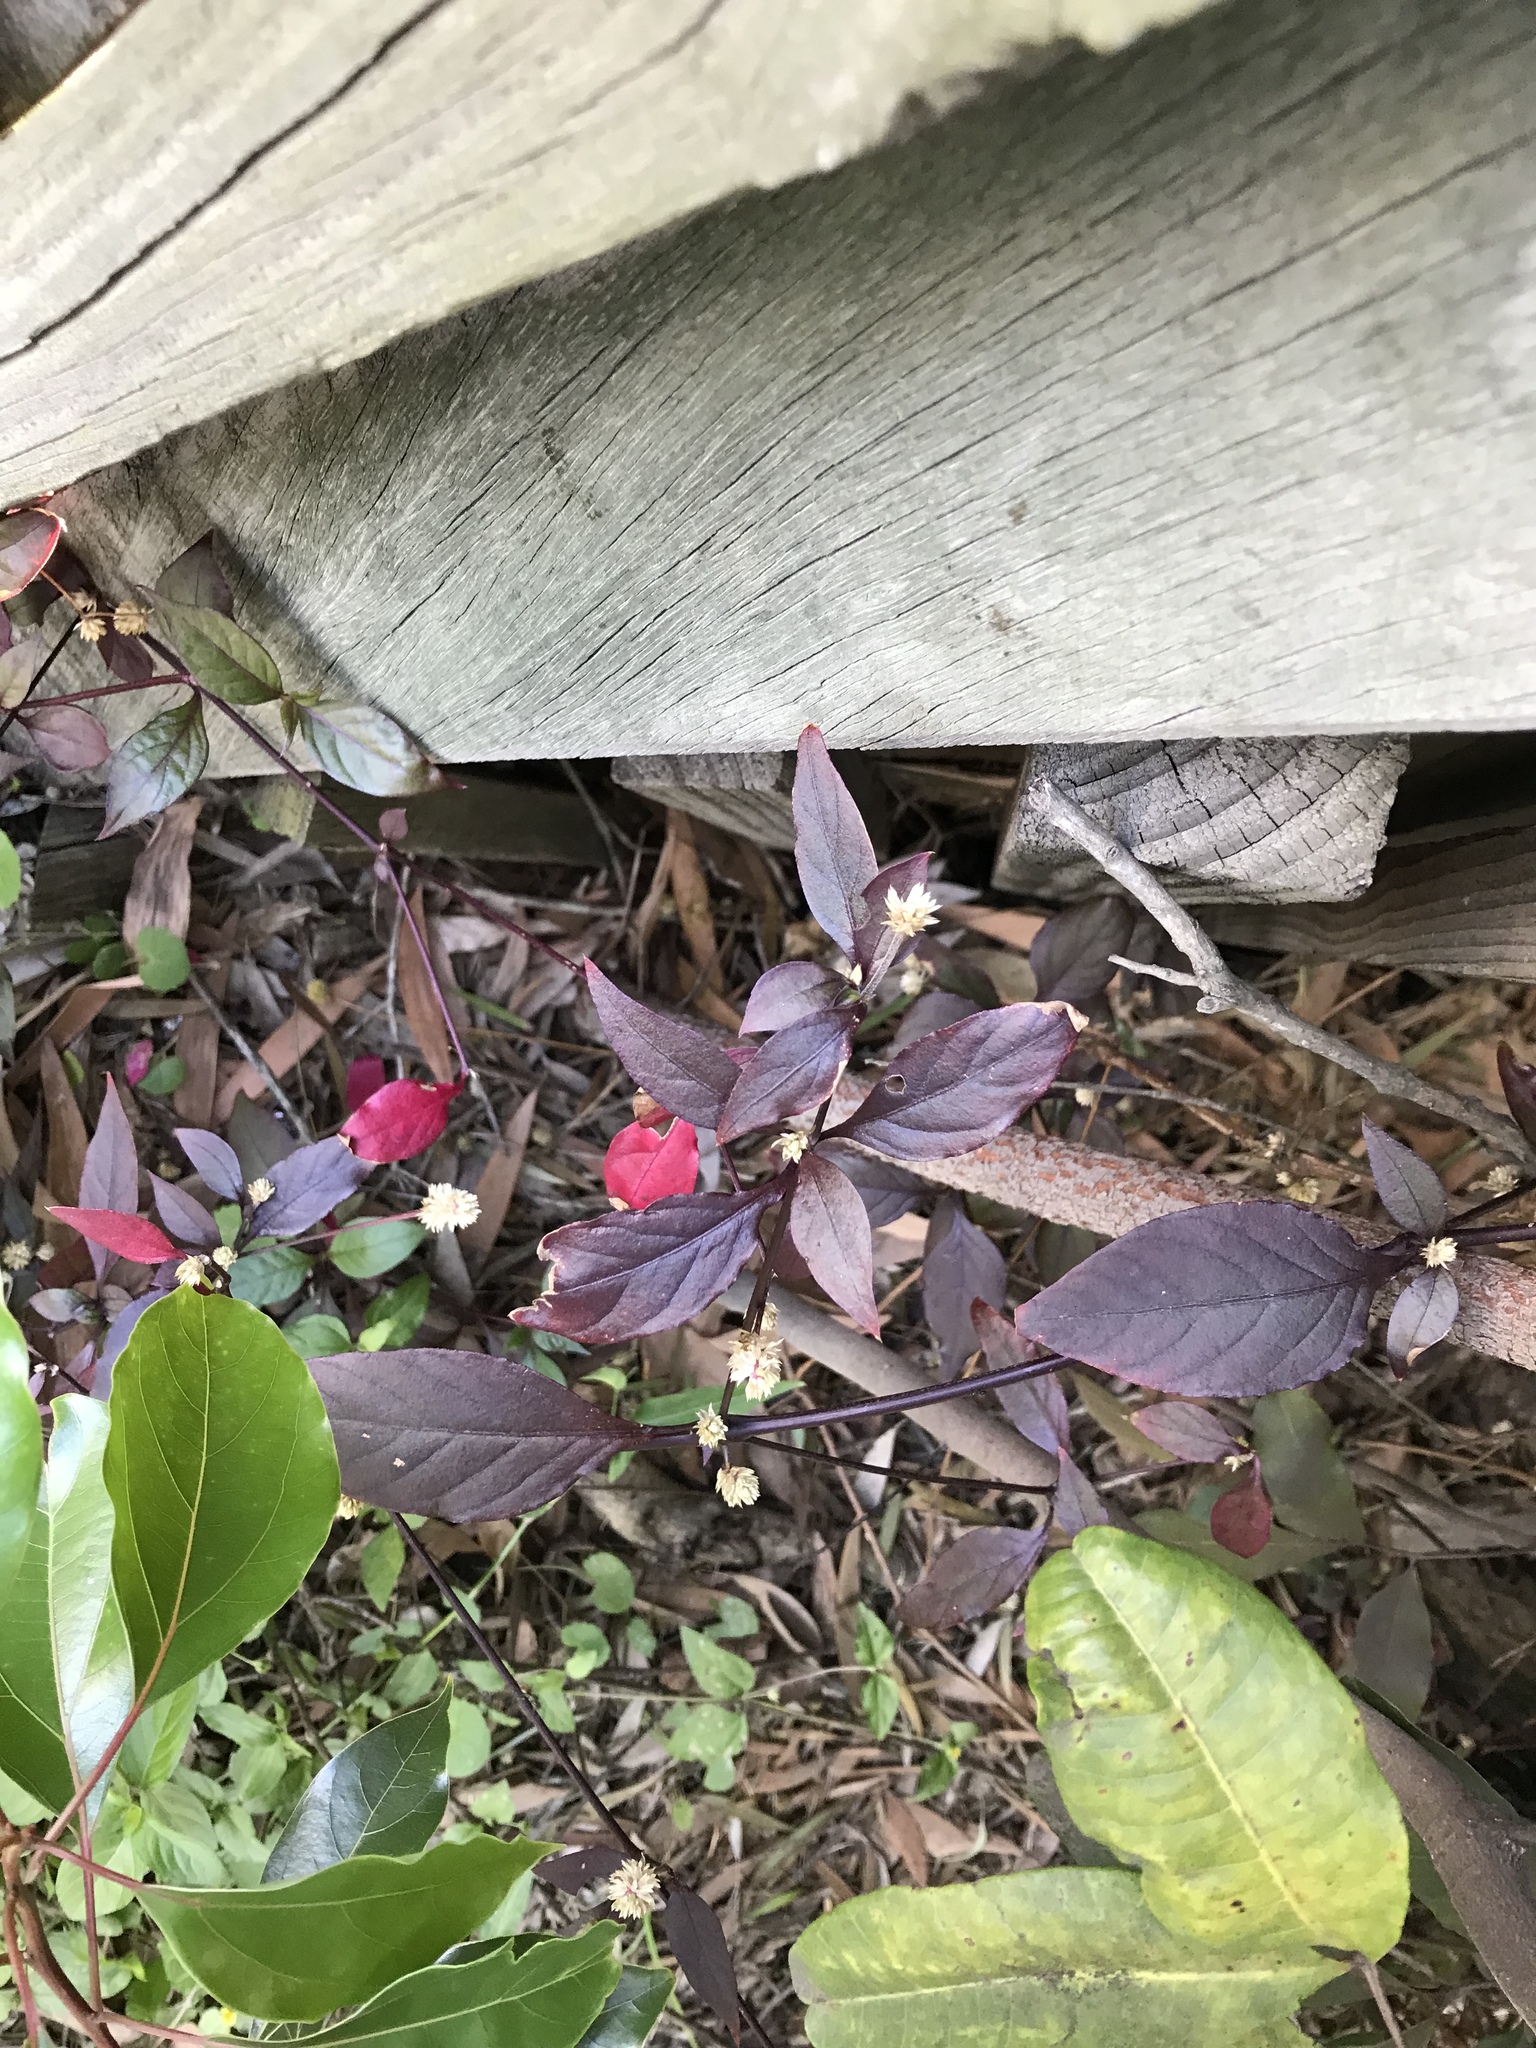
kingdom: Plantae
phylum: Tracheophyta
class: Magnoliopsida
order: Caryophyllales
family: Amaranthaceae
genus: Alternanthera
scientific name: Alternanthera brasiliana
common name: Brazilian joyweed
